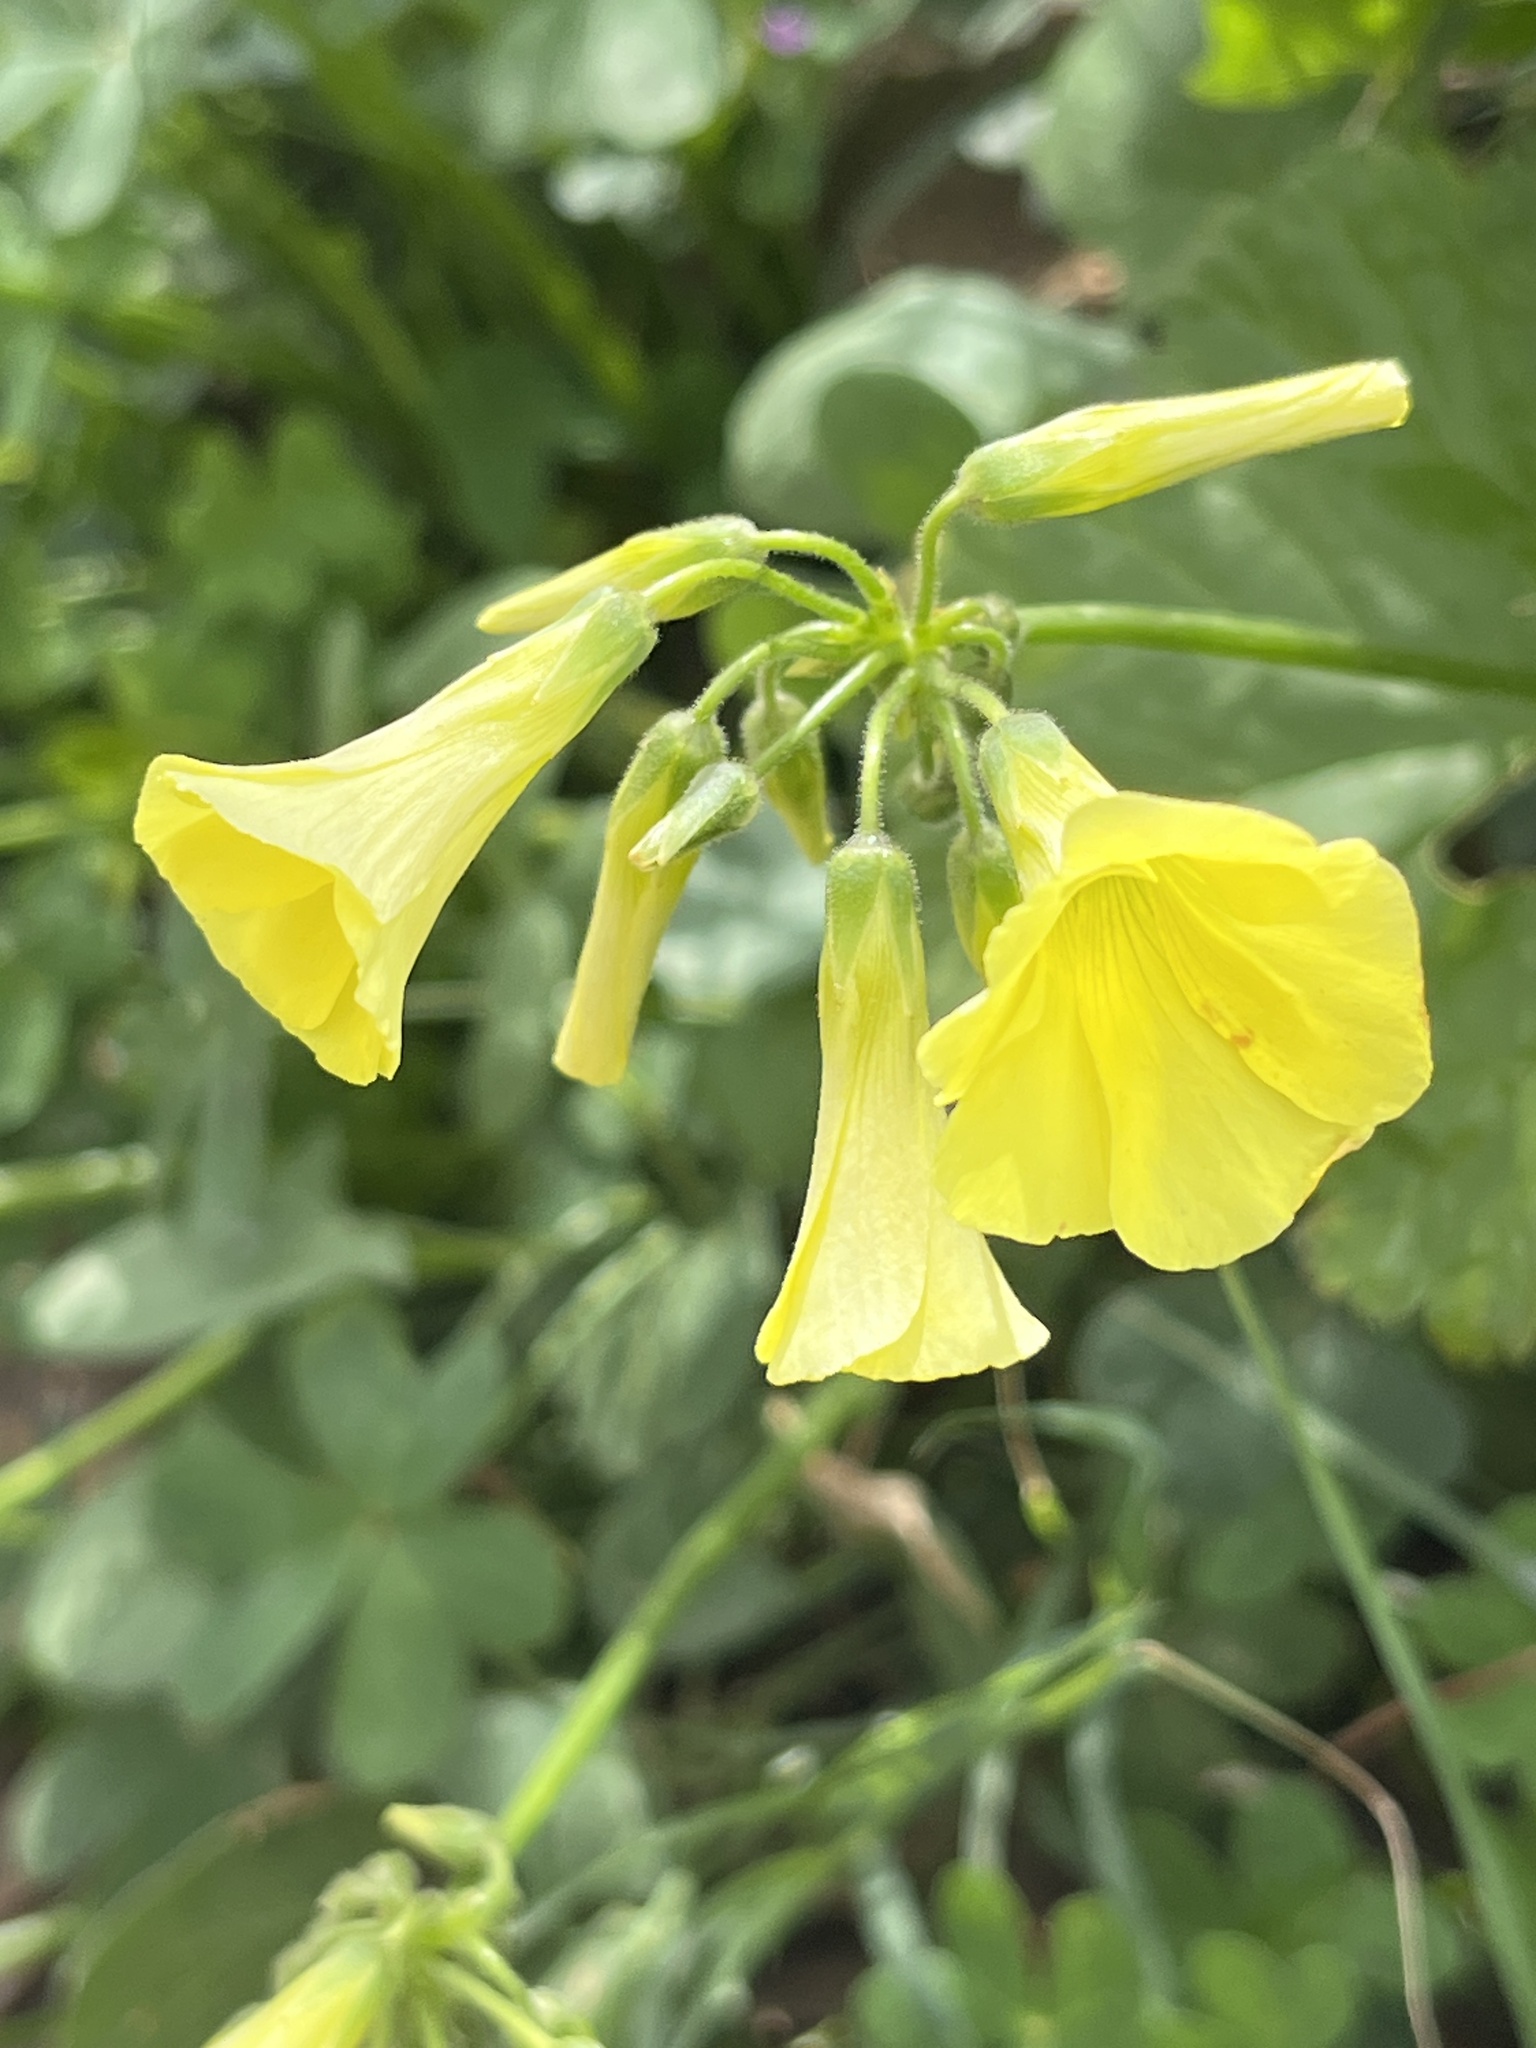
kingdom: Plantae
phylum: Tracheophyta
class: Magnoliopsida
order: Oxalidales
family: Oxalidaceae
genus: Oxalis
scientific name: Oxalis pes-caprae
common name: Bermuda-buttercup
